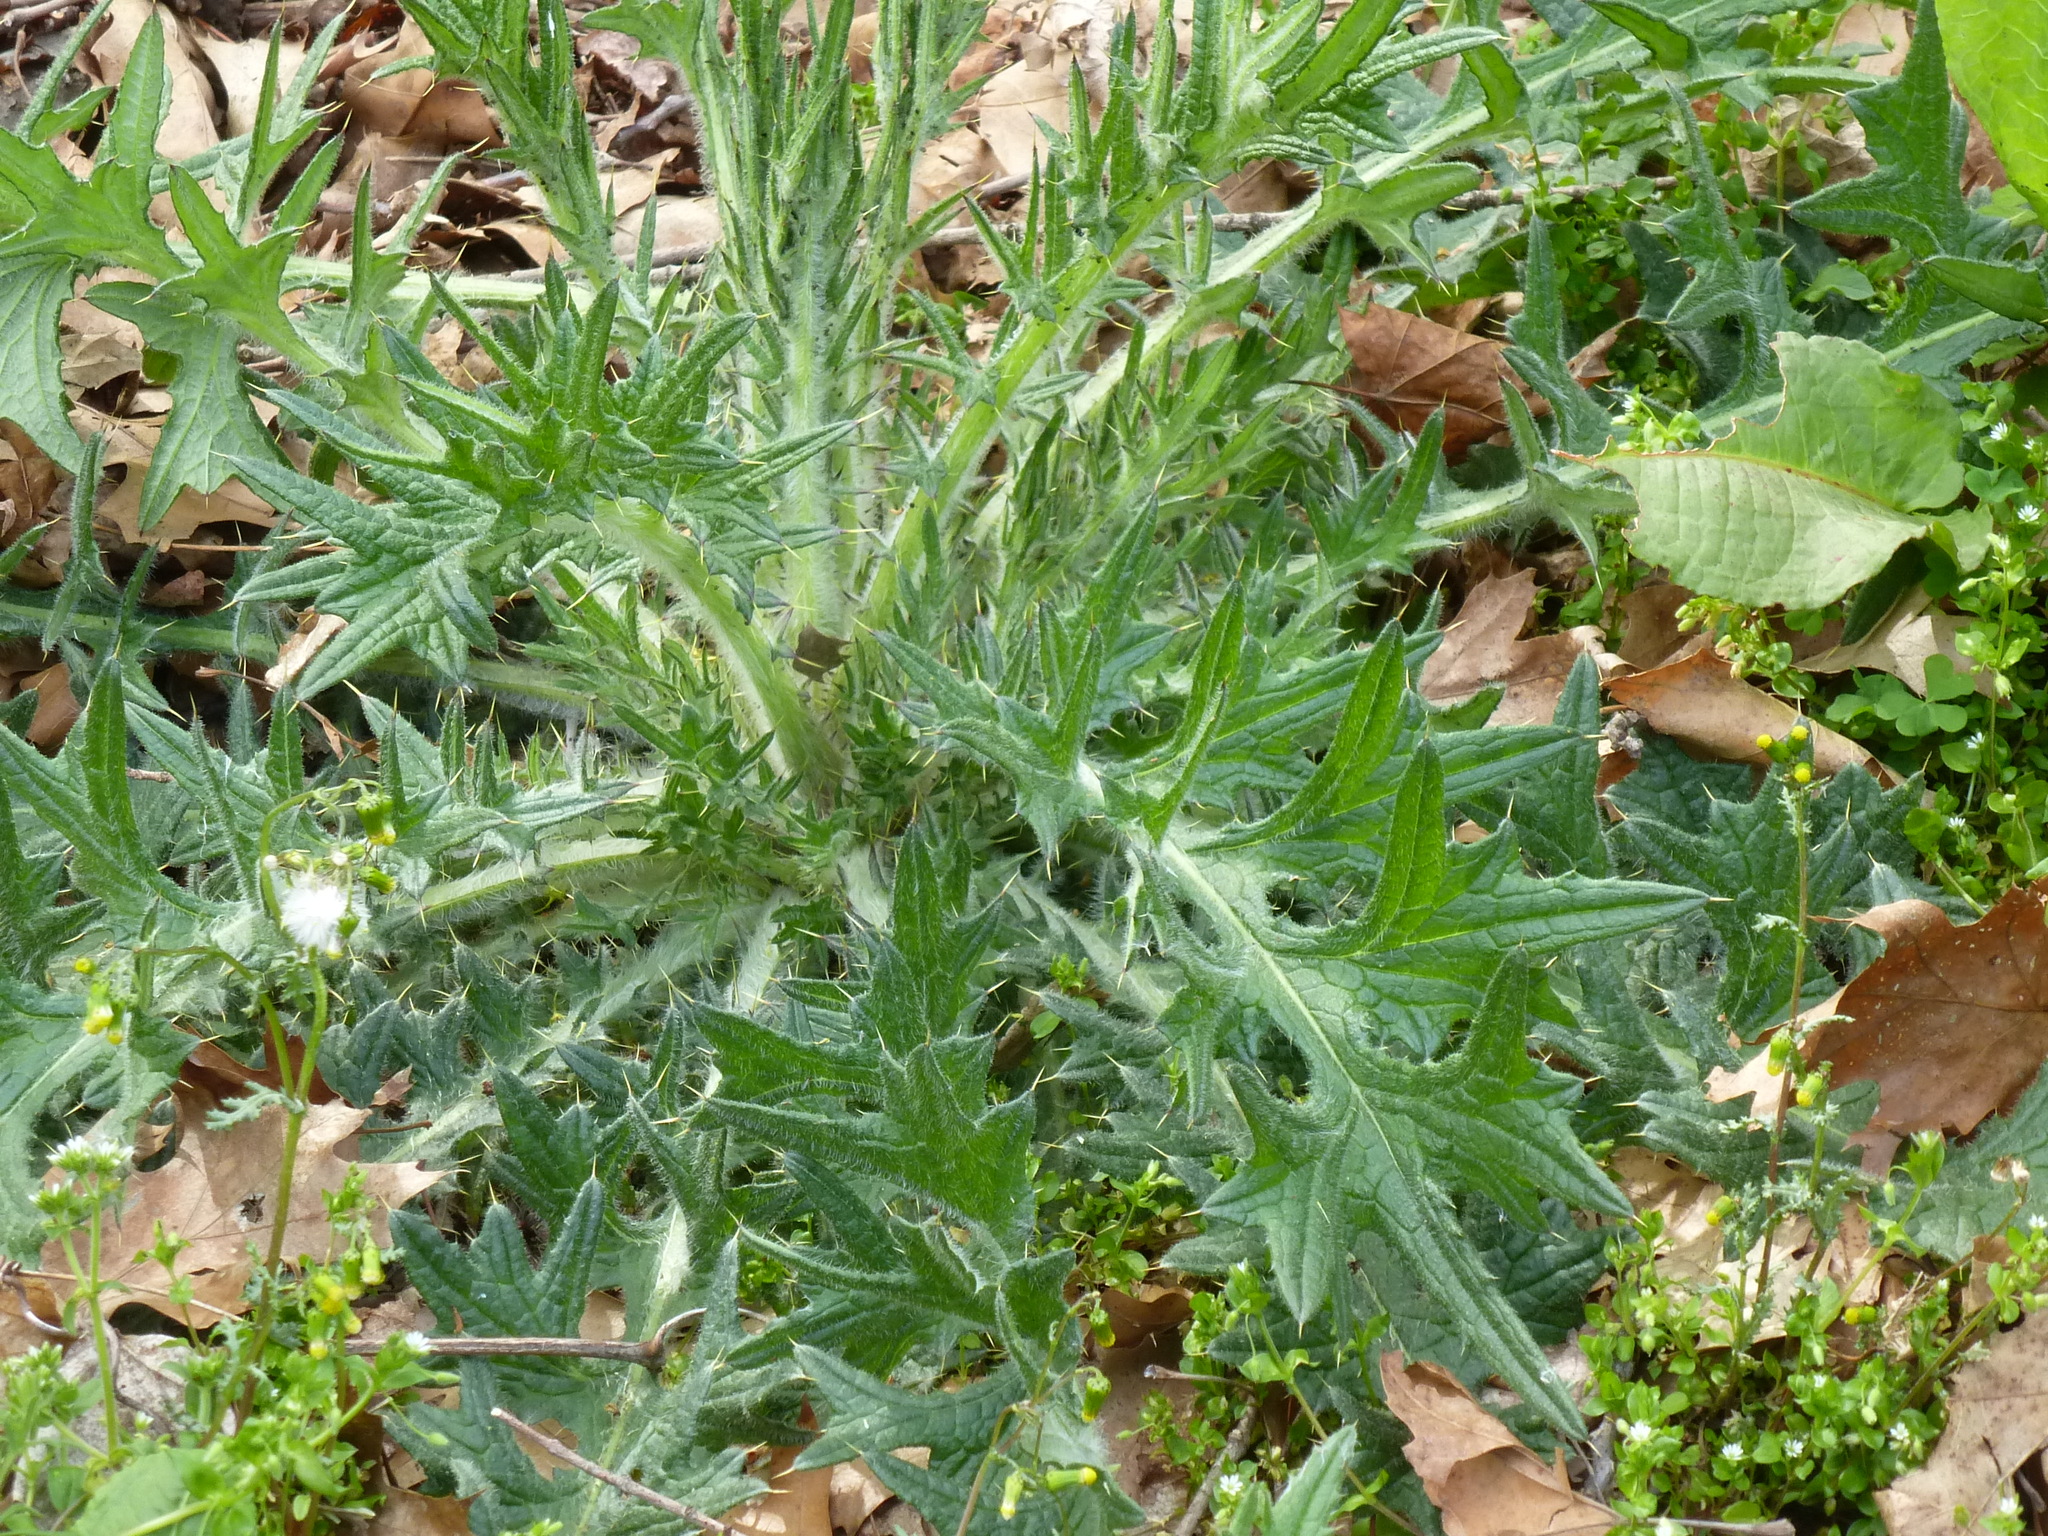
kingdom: Plantae
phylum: Tracheophyta
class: Magnoliopsida
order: Asterales
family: Asteraceae
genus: Cirsium
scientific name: Cirsium vulgare
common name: Bull thistle
